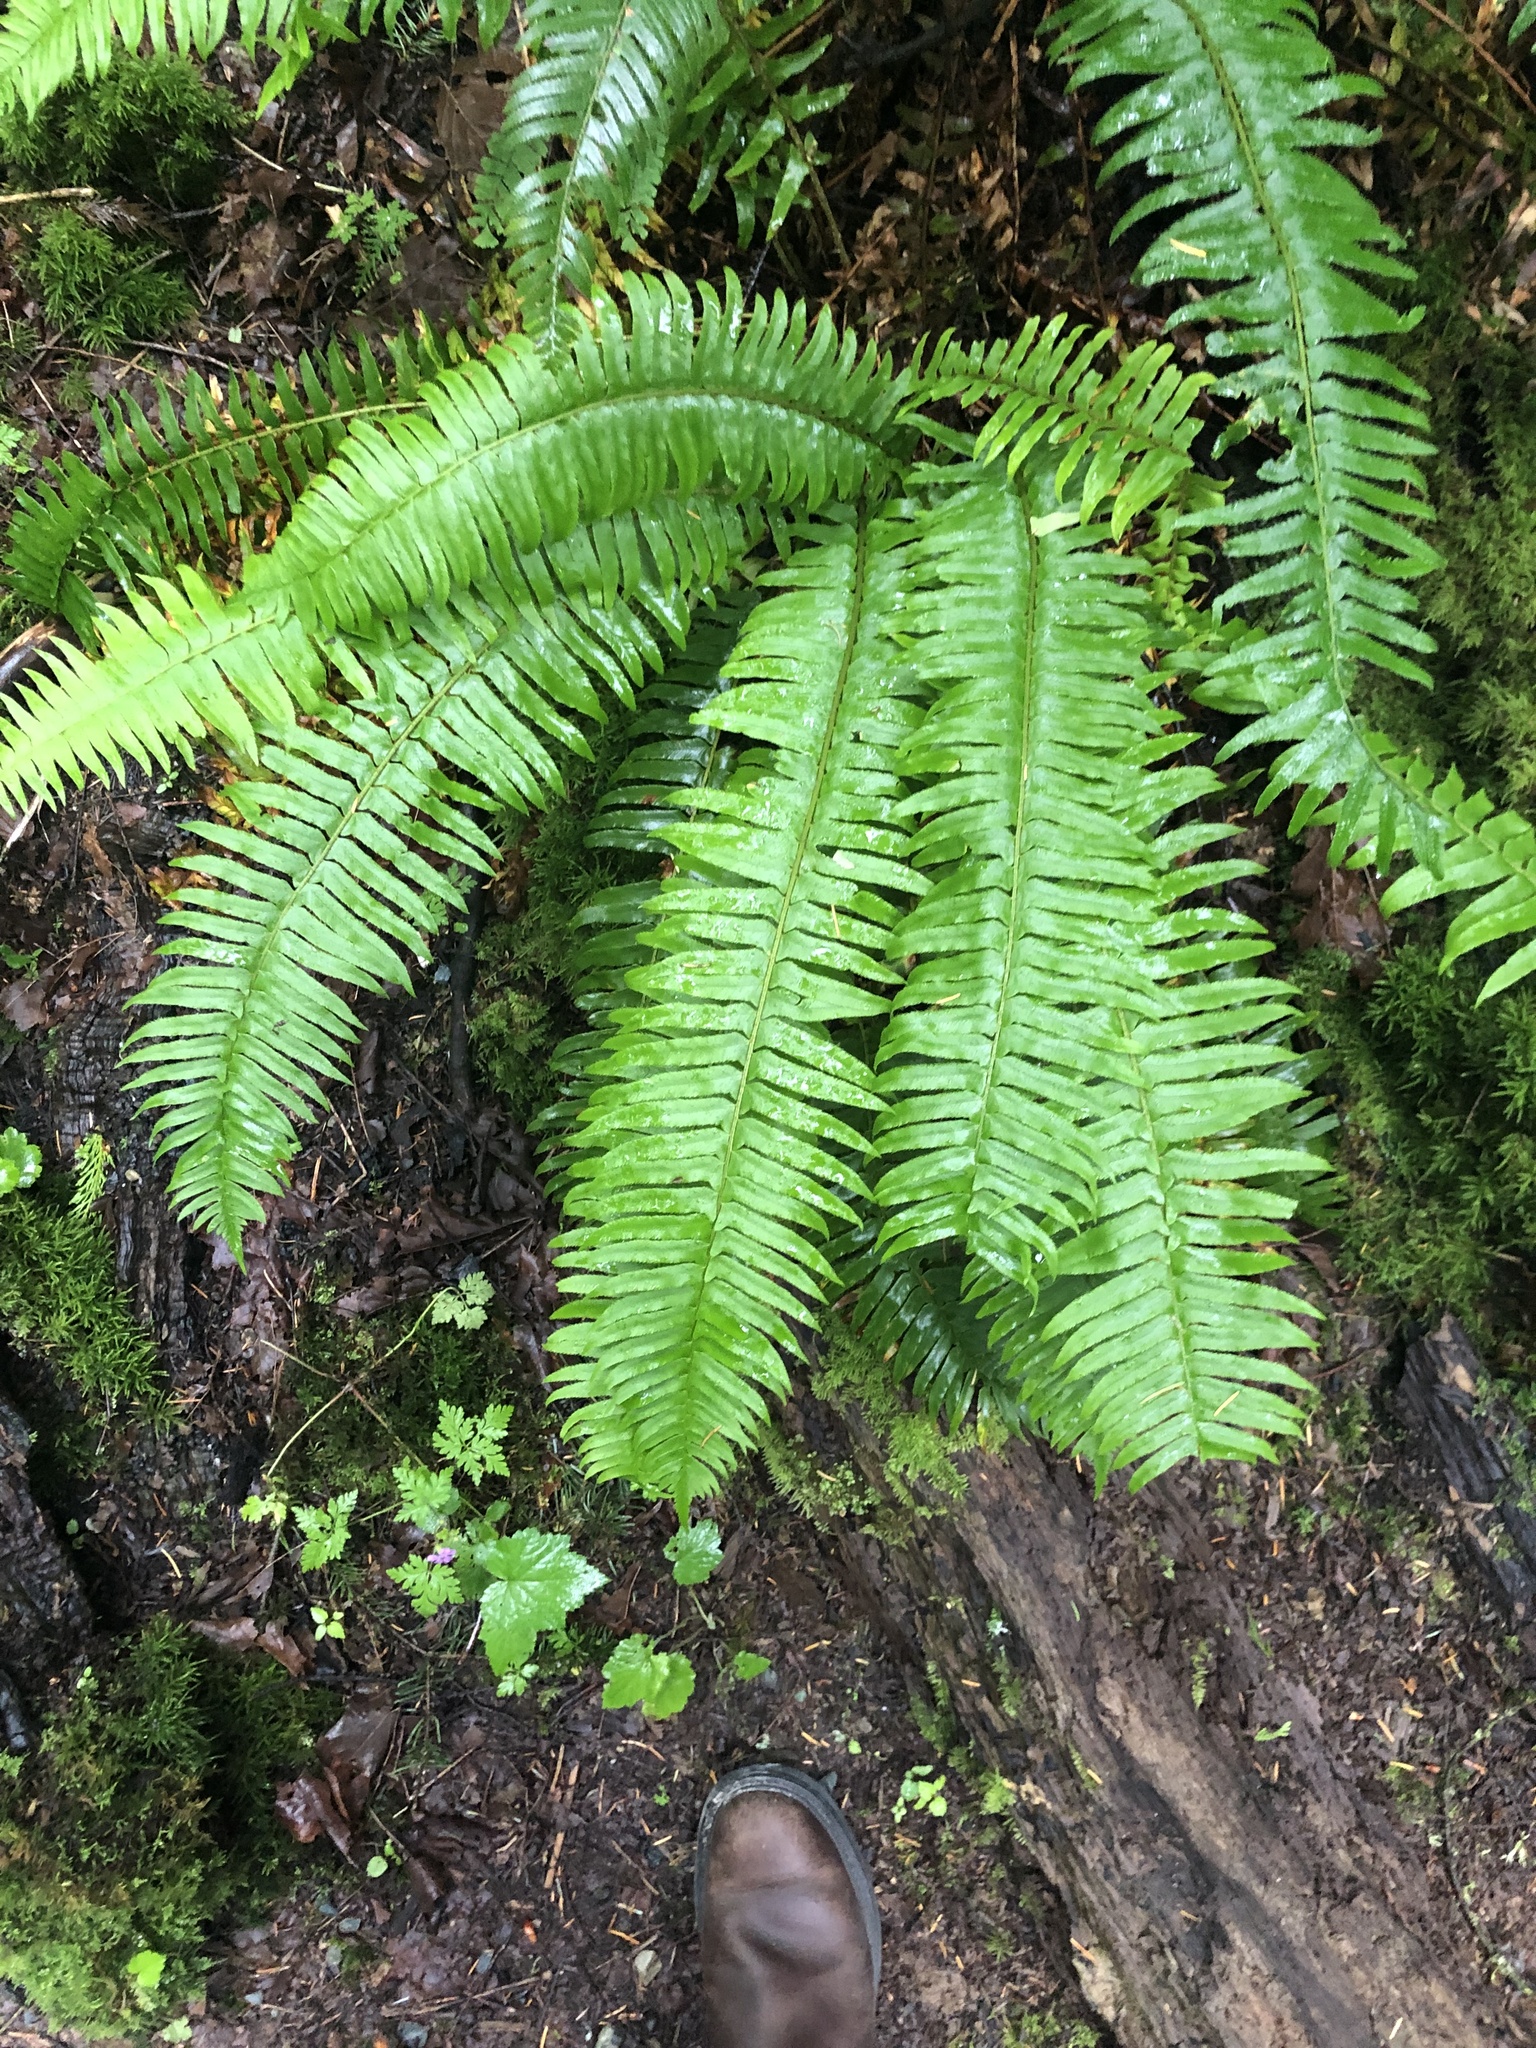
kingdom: Plantae
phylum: Tracheophyta
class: Polypodiopsida
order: Polypodiales
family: Dryopteridaceae
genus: Polystichum
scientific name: Polystichum munitum
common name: Western sword-fern
